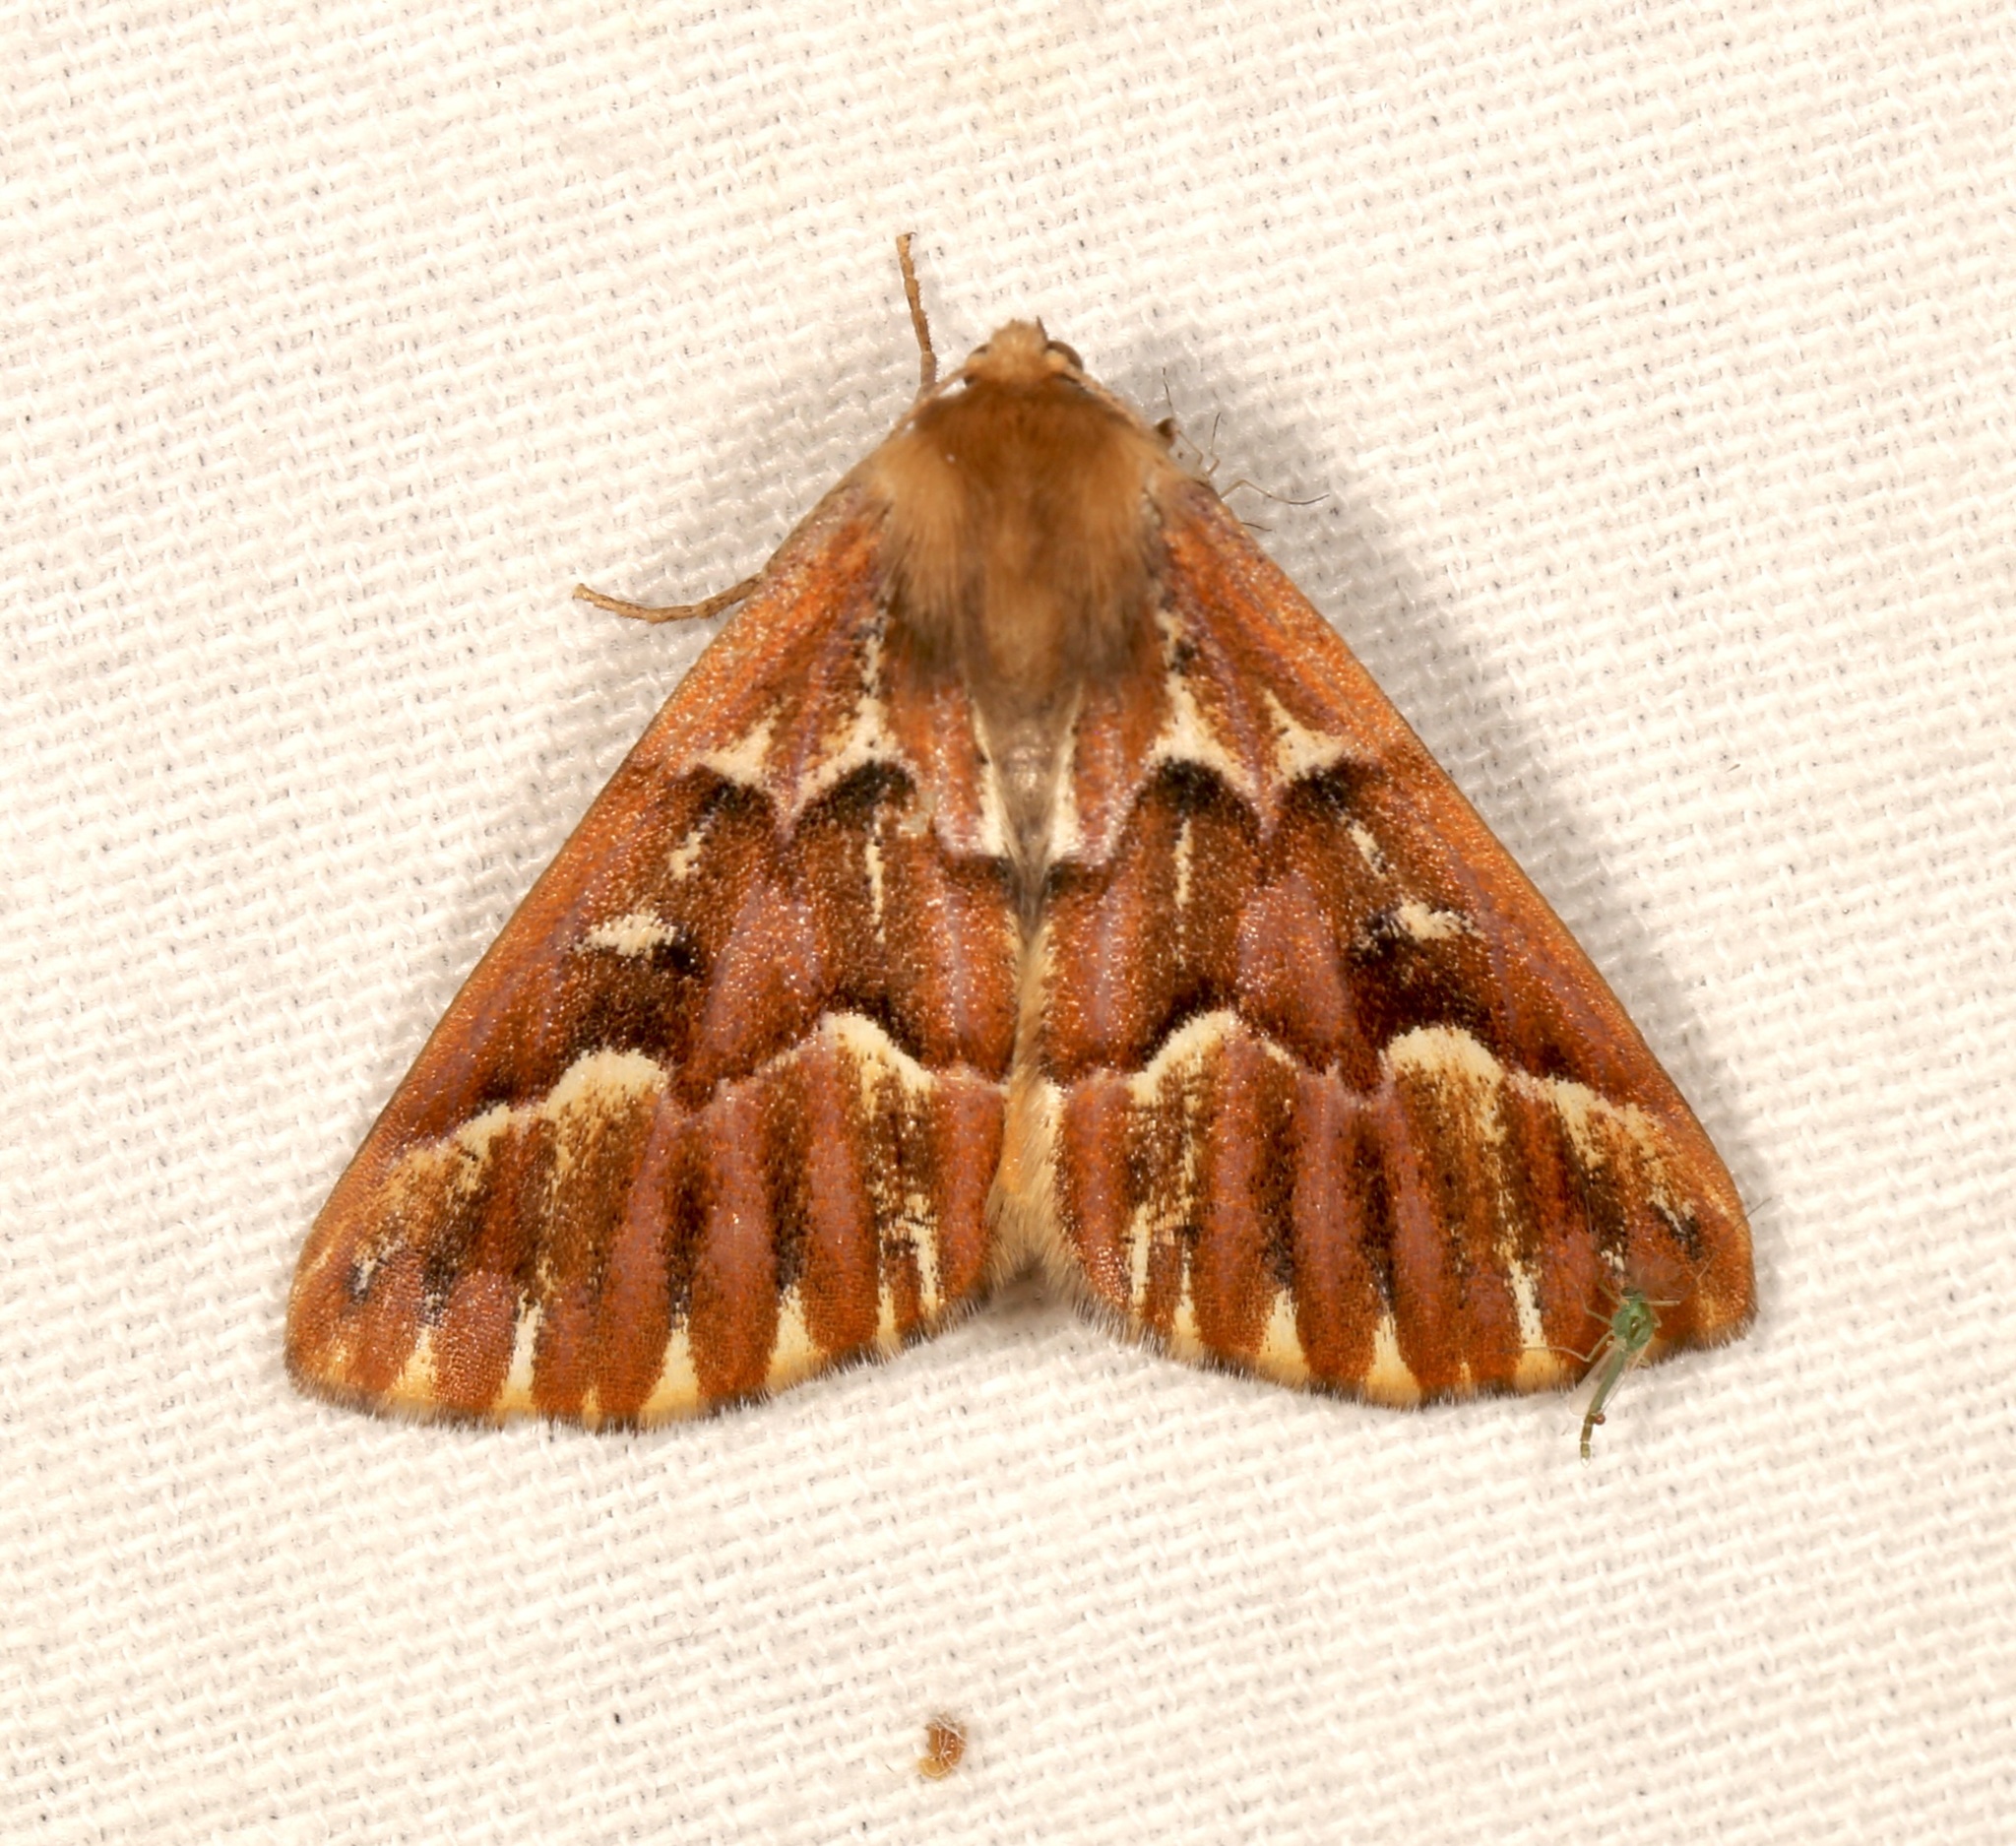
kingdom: Animalia
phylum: Arthropoda
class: Insecta
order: Lepidoptera
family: Geometridae
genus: Caripeta
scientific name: Caripeta aequaliaria
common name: Red girdle moth
